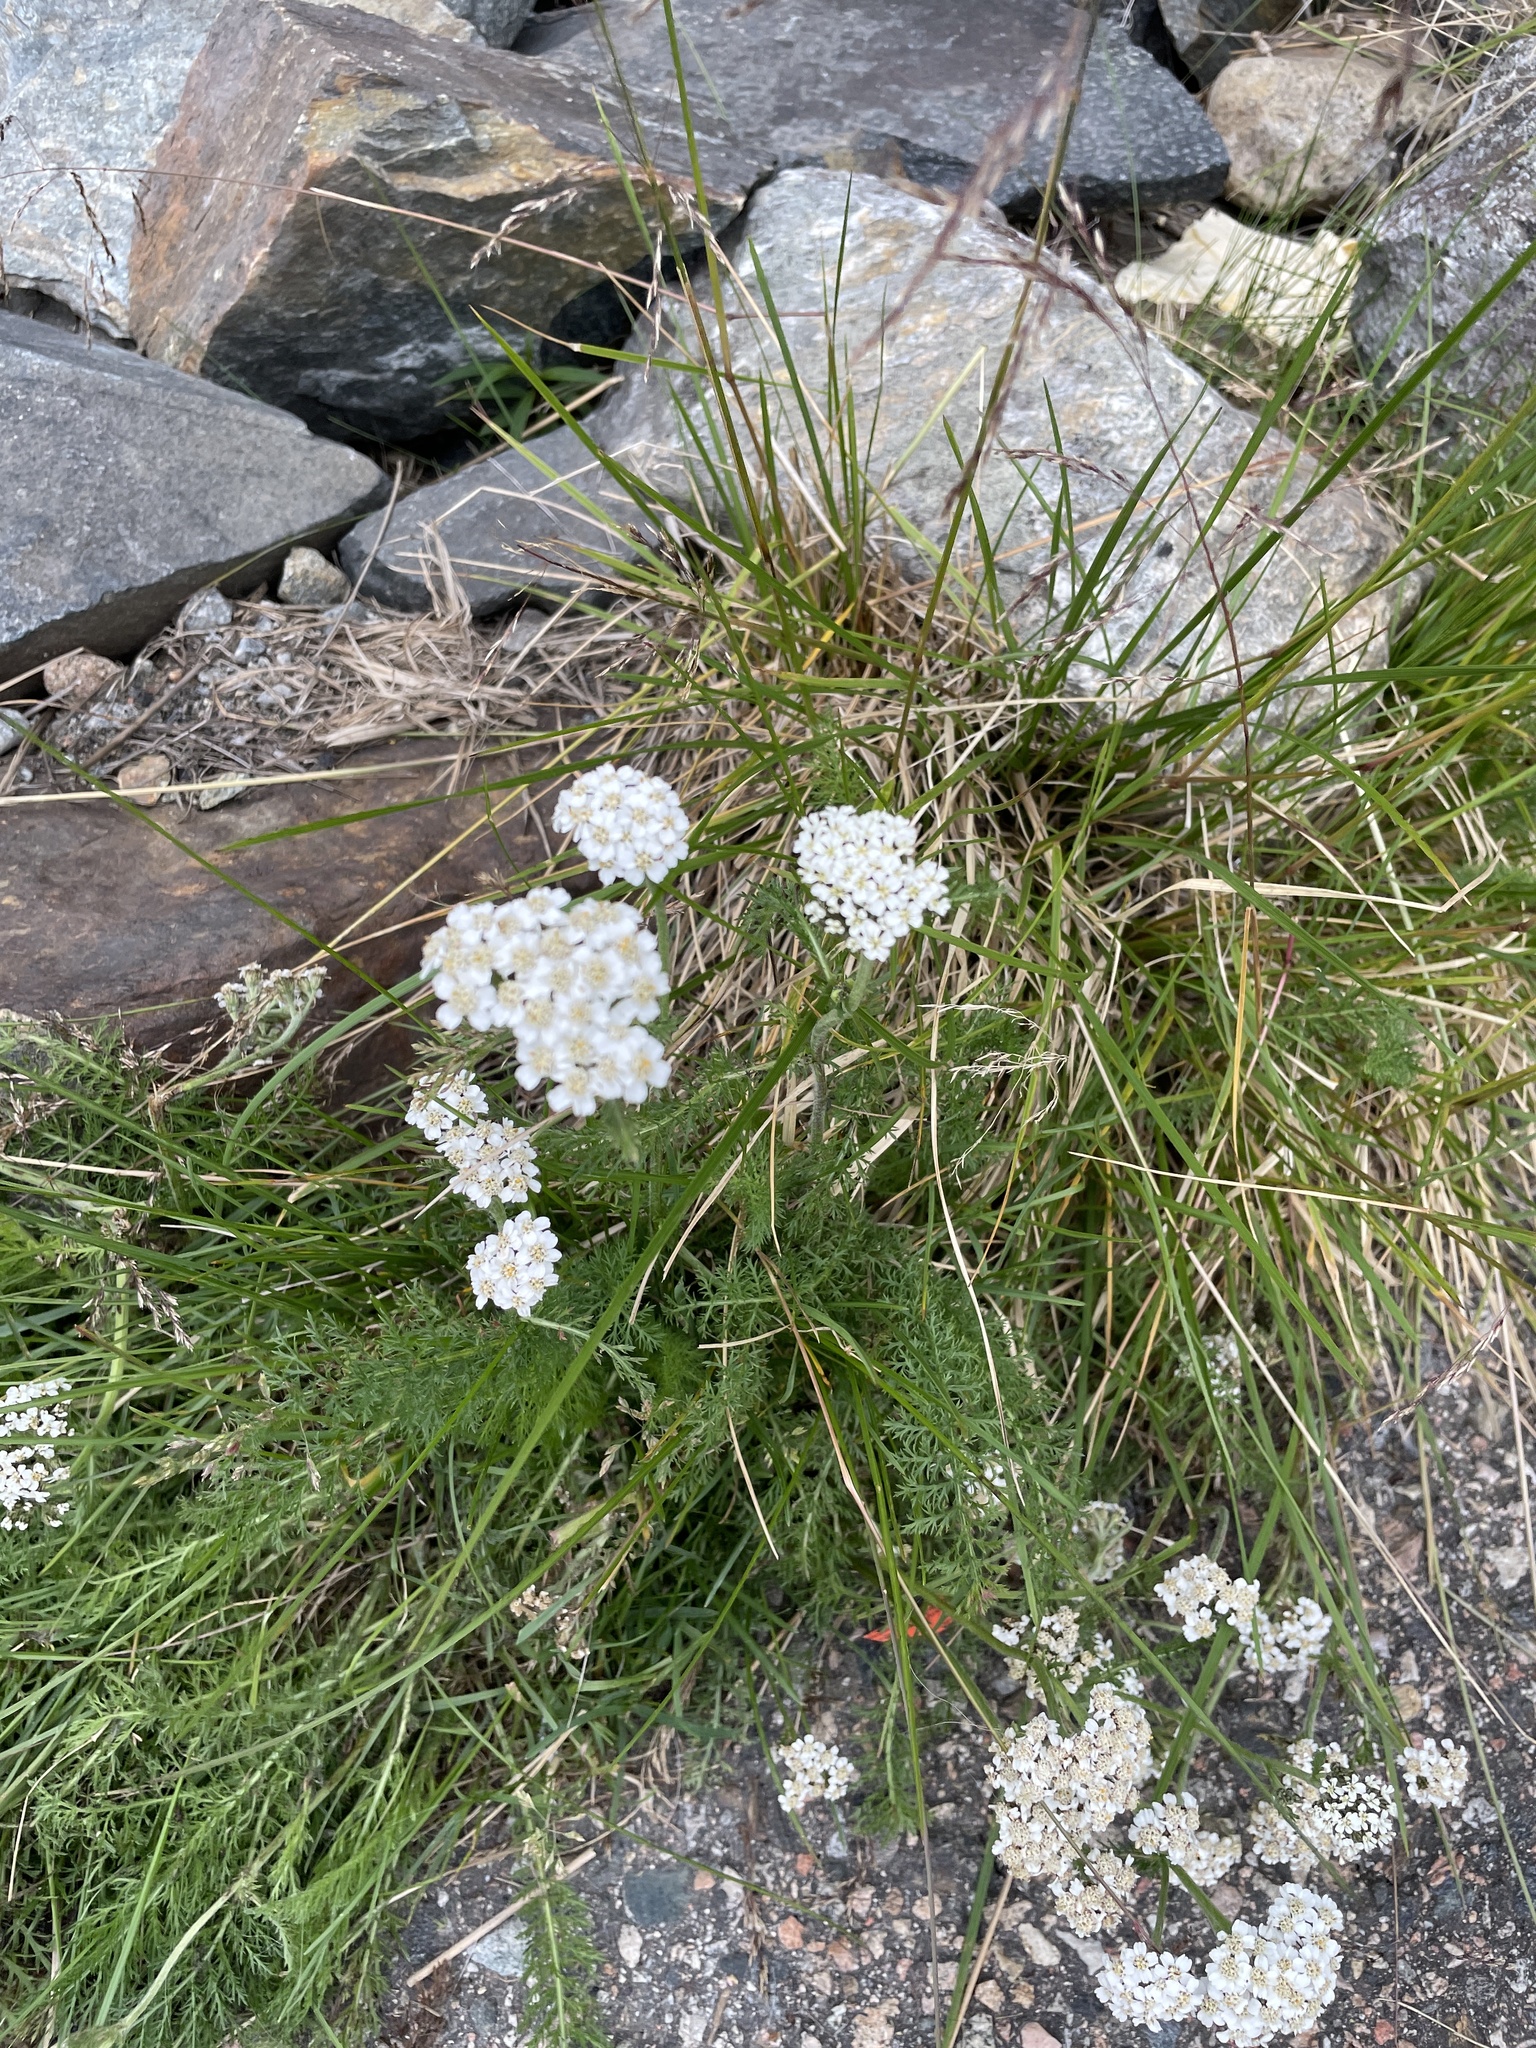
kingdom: Plantae
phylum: Tracheophyta
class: Magnoliopsida
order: Asterales
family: Asteraceae
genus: Achillea
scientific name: Achillea millefolium
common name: Yarrow
